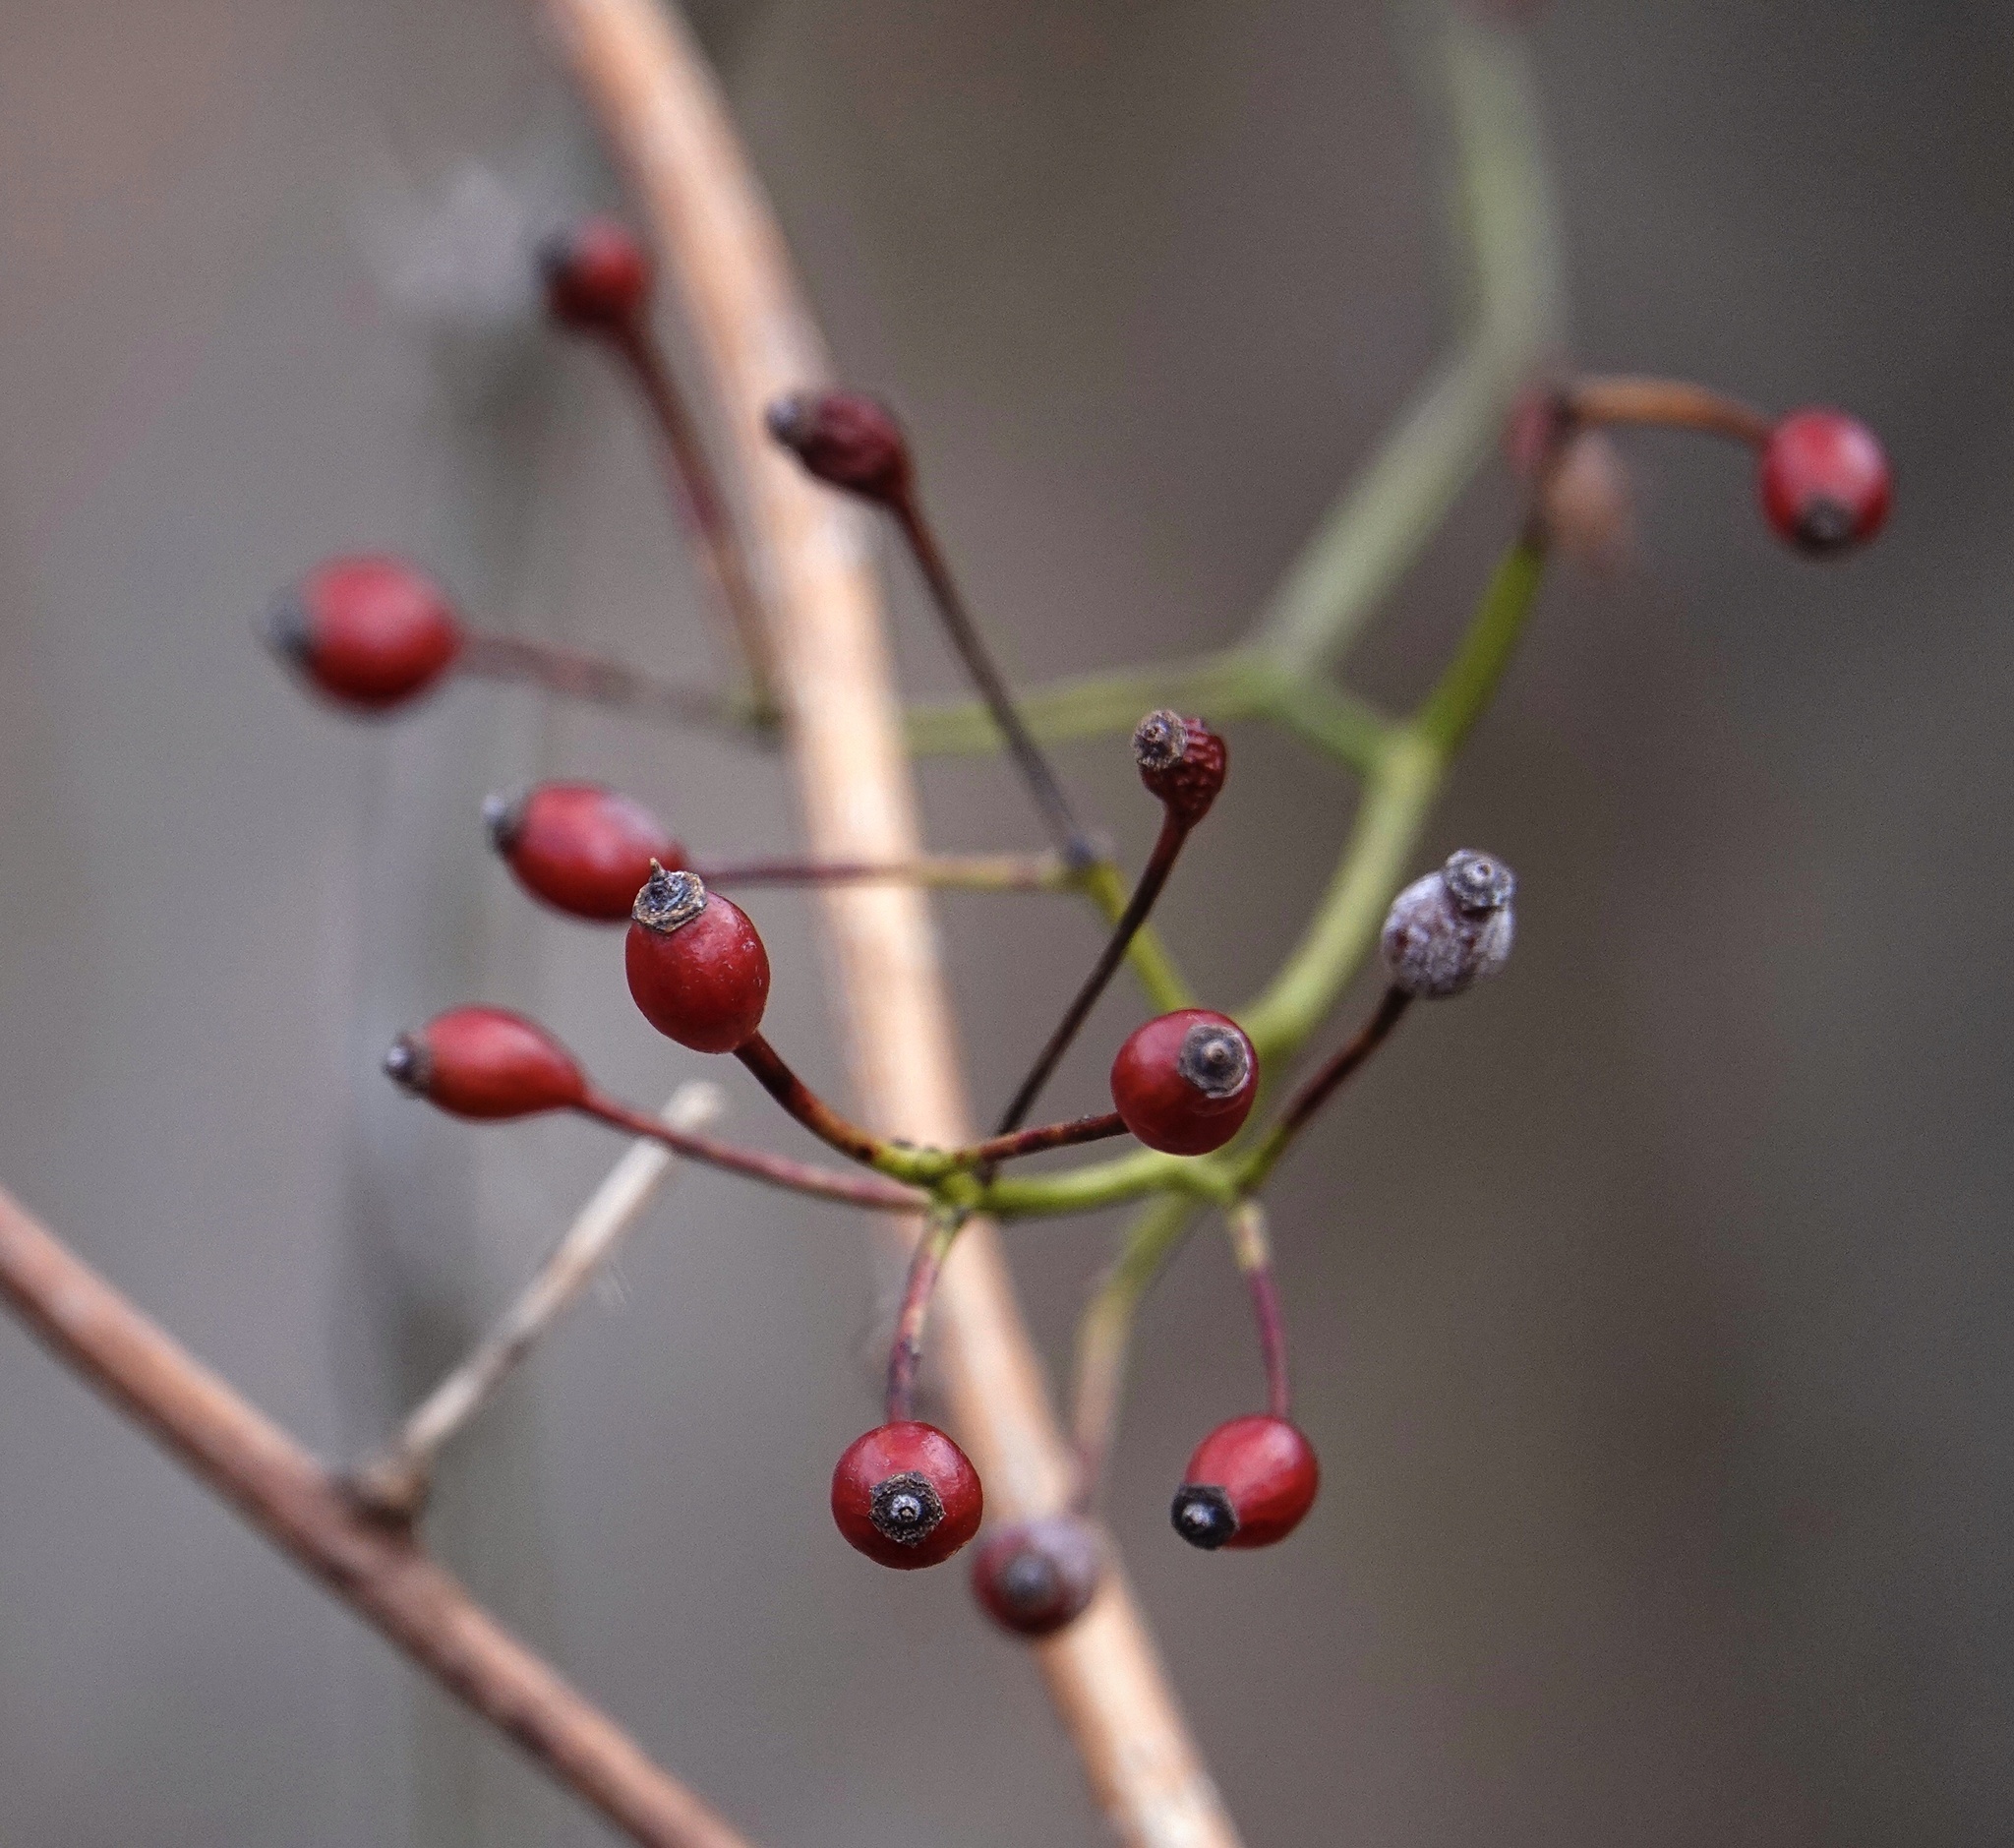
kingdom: Plantae
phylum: Tracheophyta
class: Magnoliopsida
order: Rosales
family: Rosaceae
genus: Rosa
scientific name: Rosa multiflora
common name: Multiflora rose
